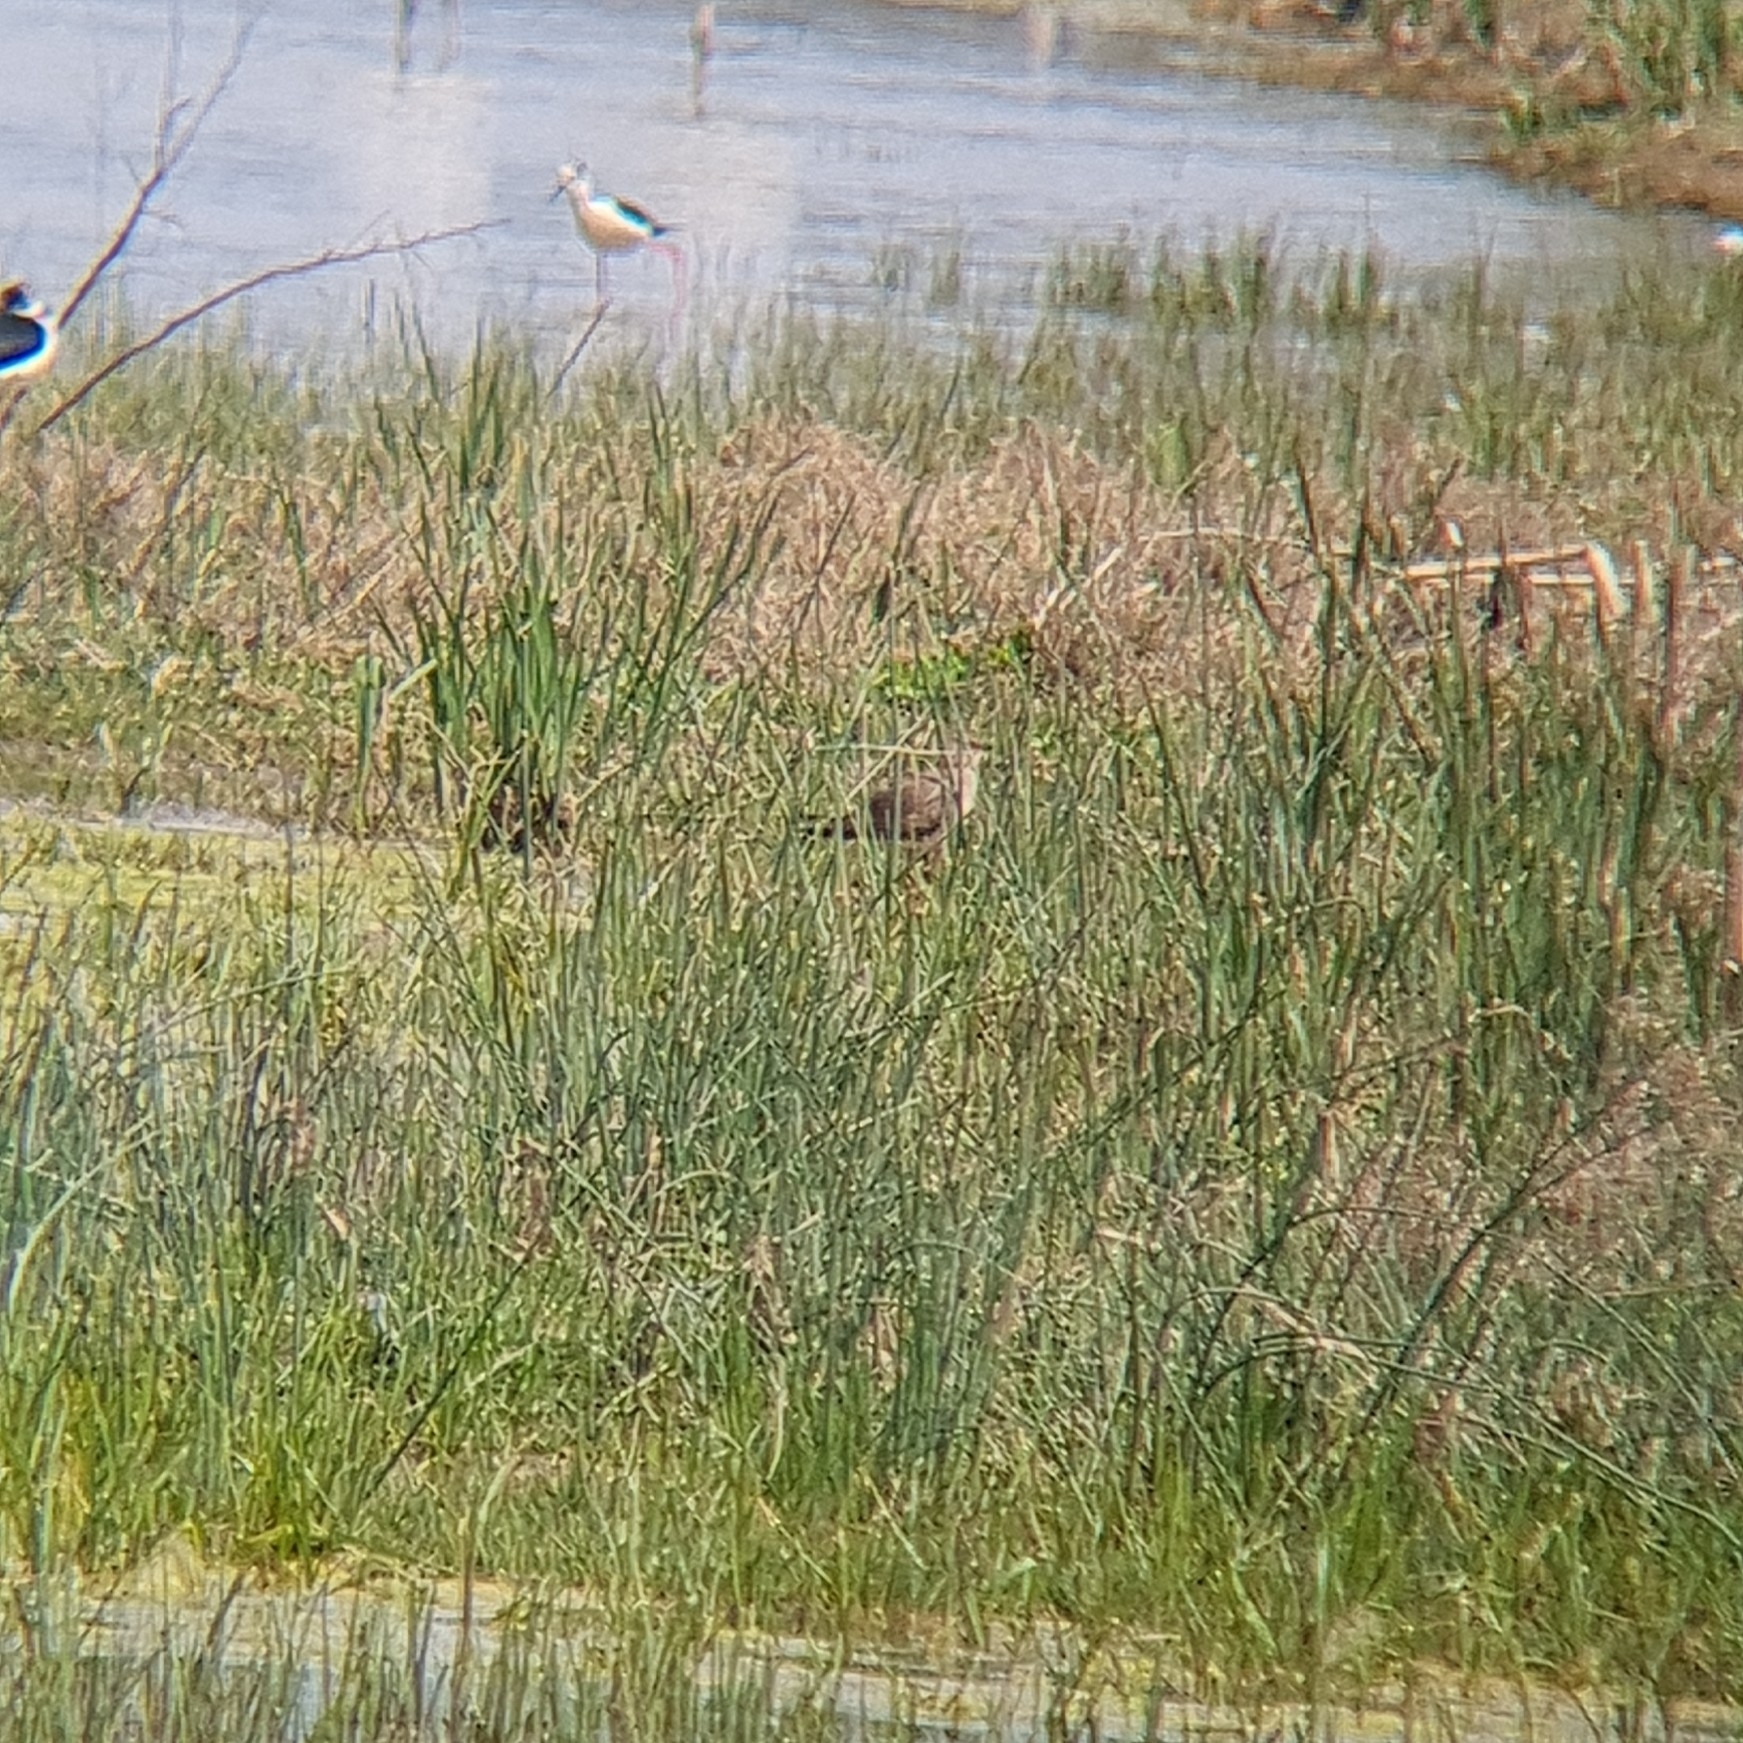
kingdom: Animalia
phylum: Chordata
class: Aves
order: Charadriiformes
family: Glareolidae
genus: Glareola
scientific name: Glareola pratincola
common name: Collared pratincole
